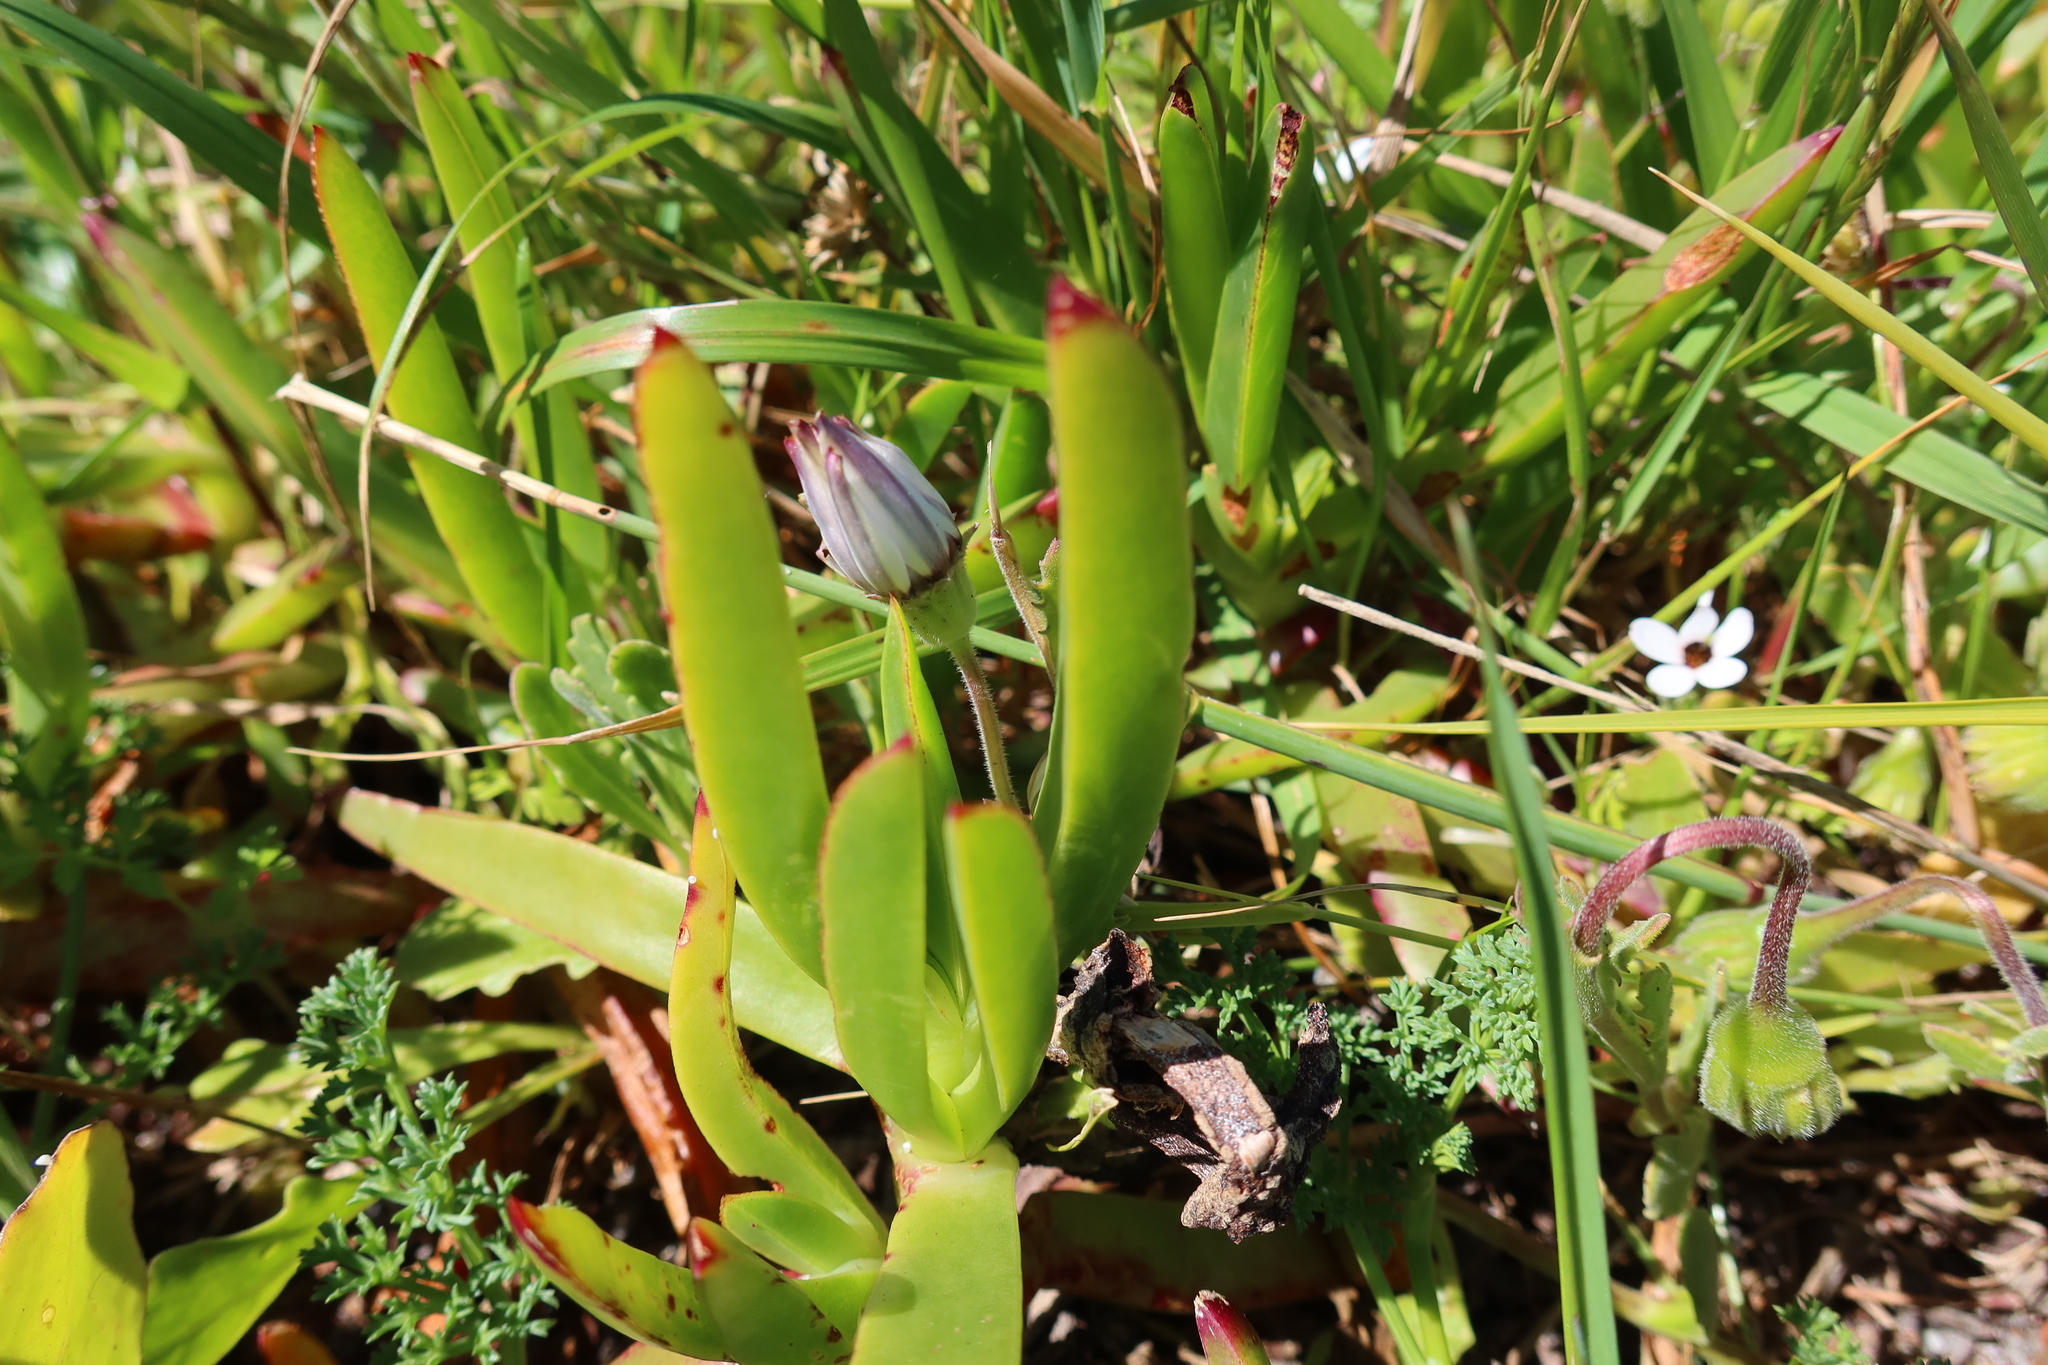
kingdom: Plantae
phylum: Tracheophyta
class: Magnoliopsida
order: Caryophyllales
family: Aizoaceae
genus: Carpobrotus
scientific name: Carpobrotus edulis
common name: Hottentot-fig
